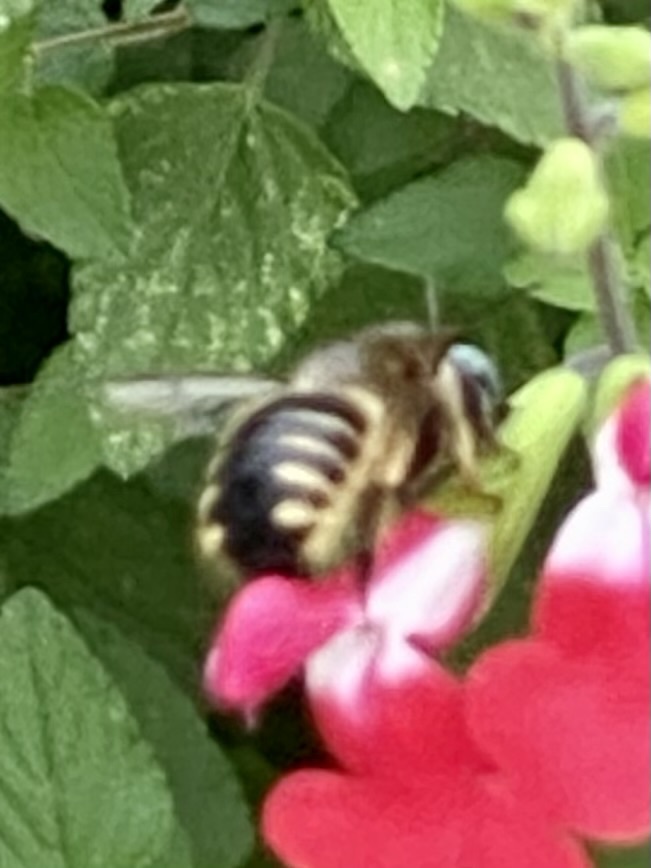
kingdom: Animalia
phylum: Arthropoda
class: Insecta
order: Hymenoptera
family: Apidae
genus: Xylocopa
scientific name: Xylocopa tabaniformis
